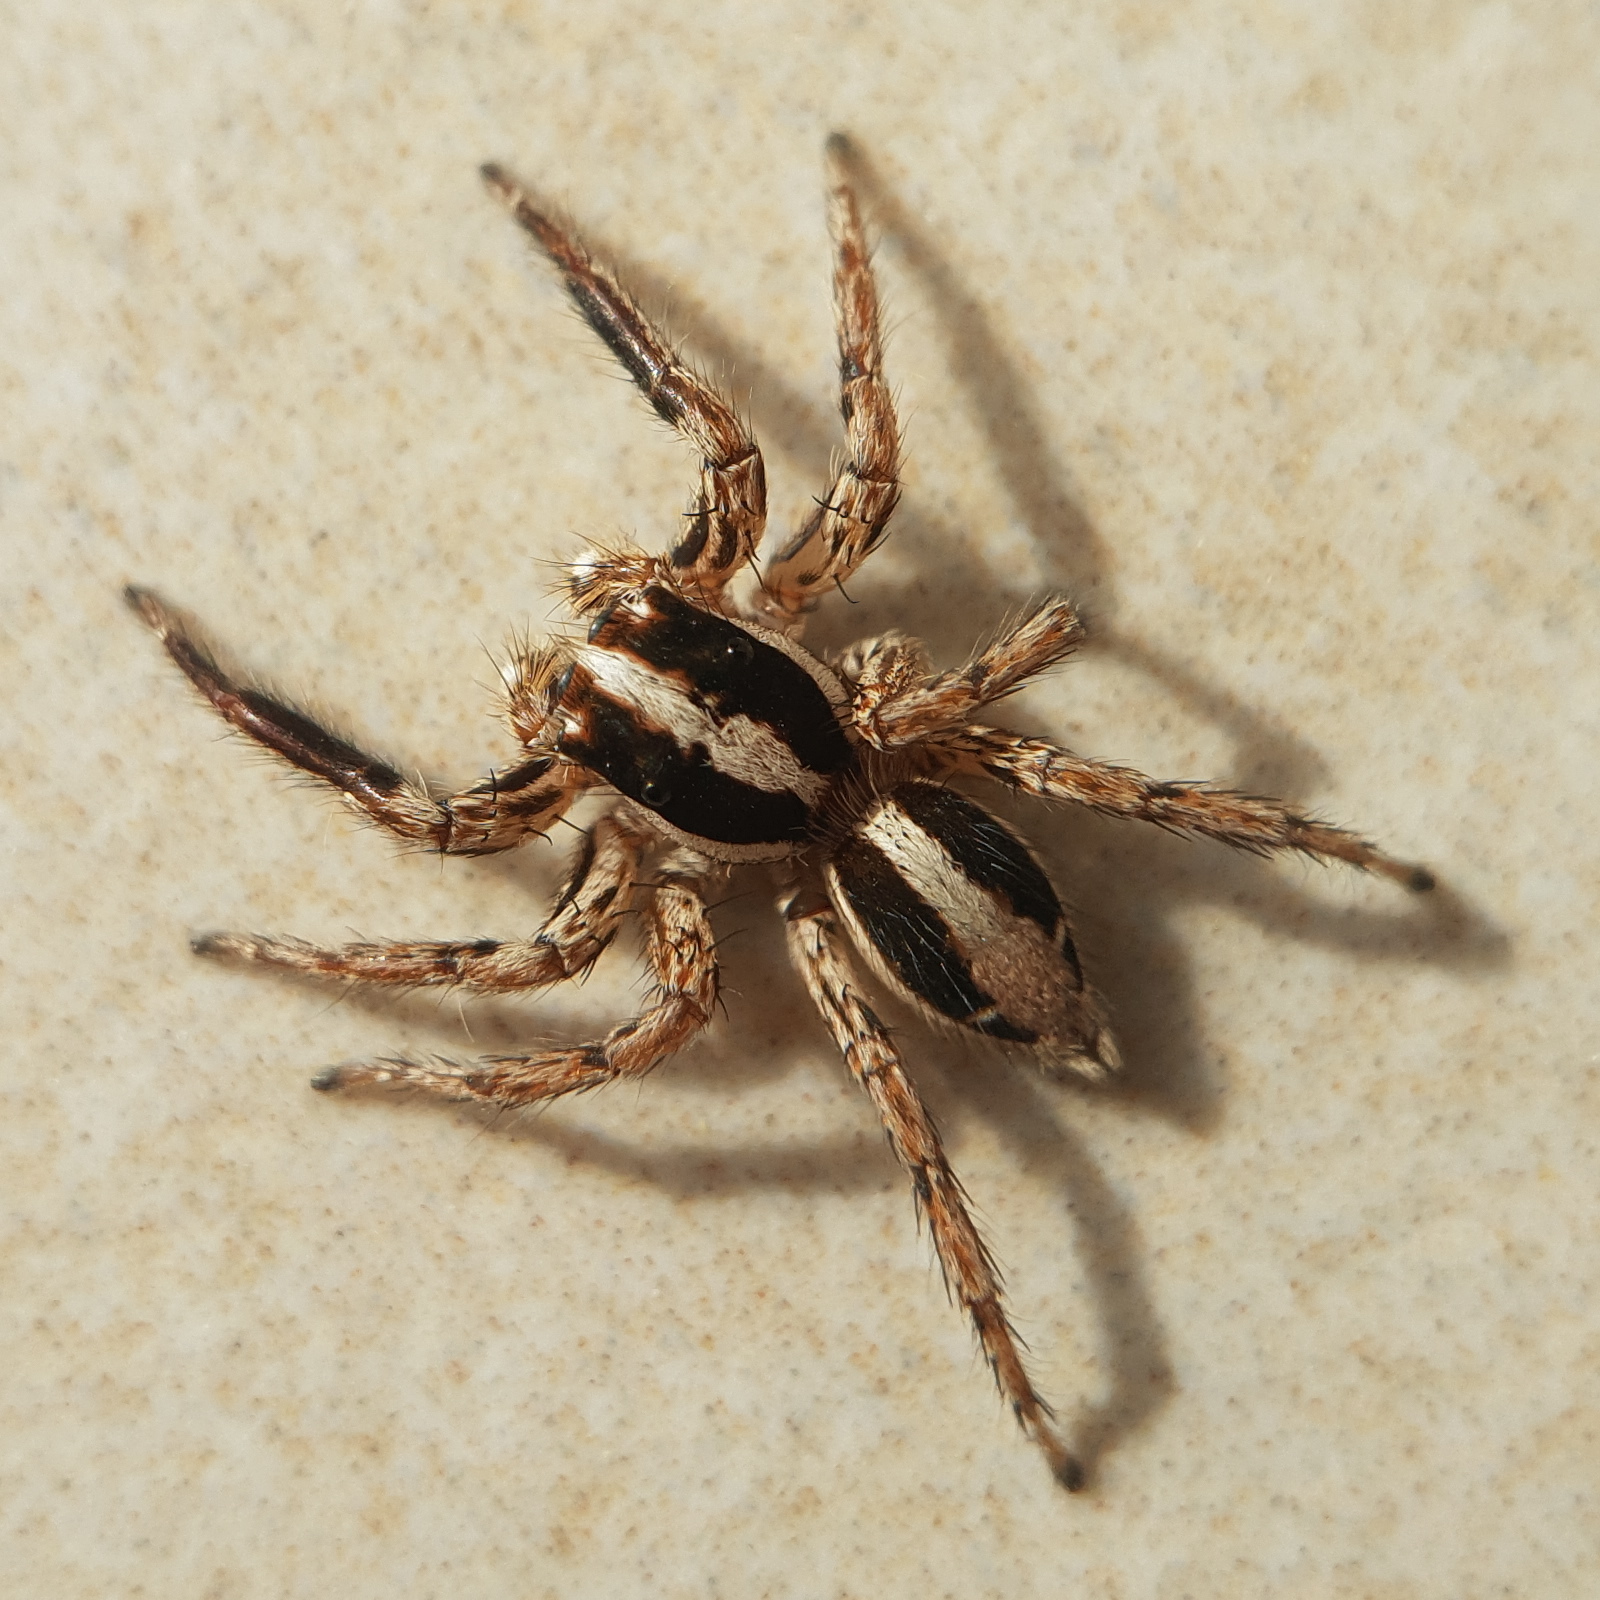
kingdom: Animalia
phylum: Arthropoda
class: Arachnida
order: Araneae
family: Salticidae
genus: Plexippus
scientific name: Plexippus paykulli
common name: Pantropical jumper
